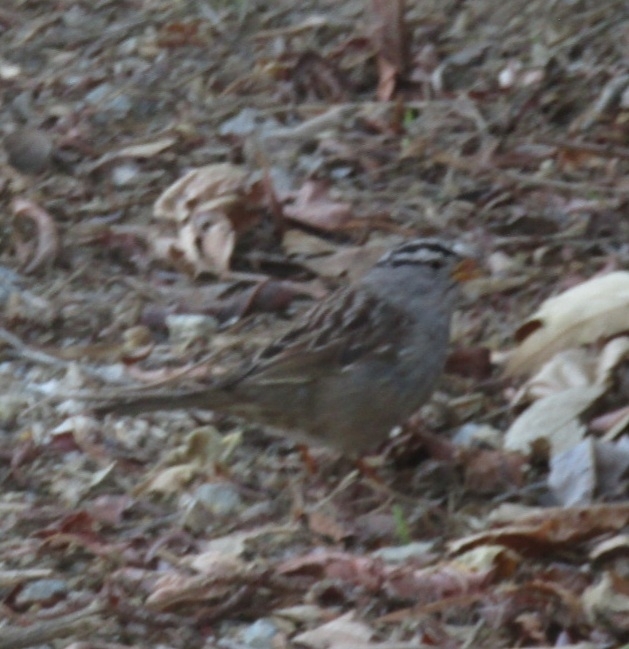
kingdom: Animalia
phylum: Chordata
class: Aves
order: Passeriformes
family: Passerellidae
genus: Zonotrichia
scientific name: Zonotrichia leucophrys
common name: White-crowned sparrow
